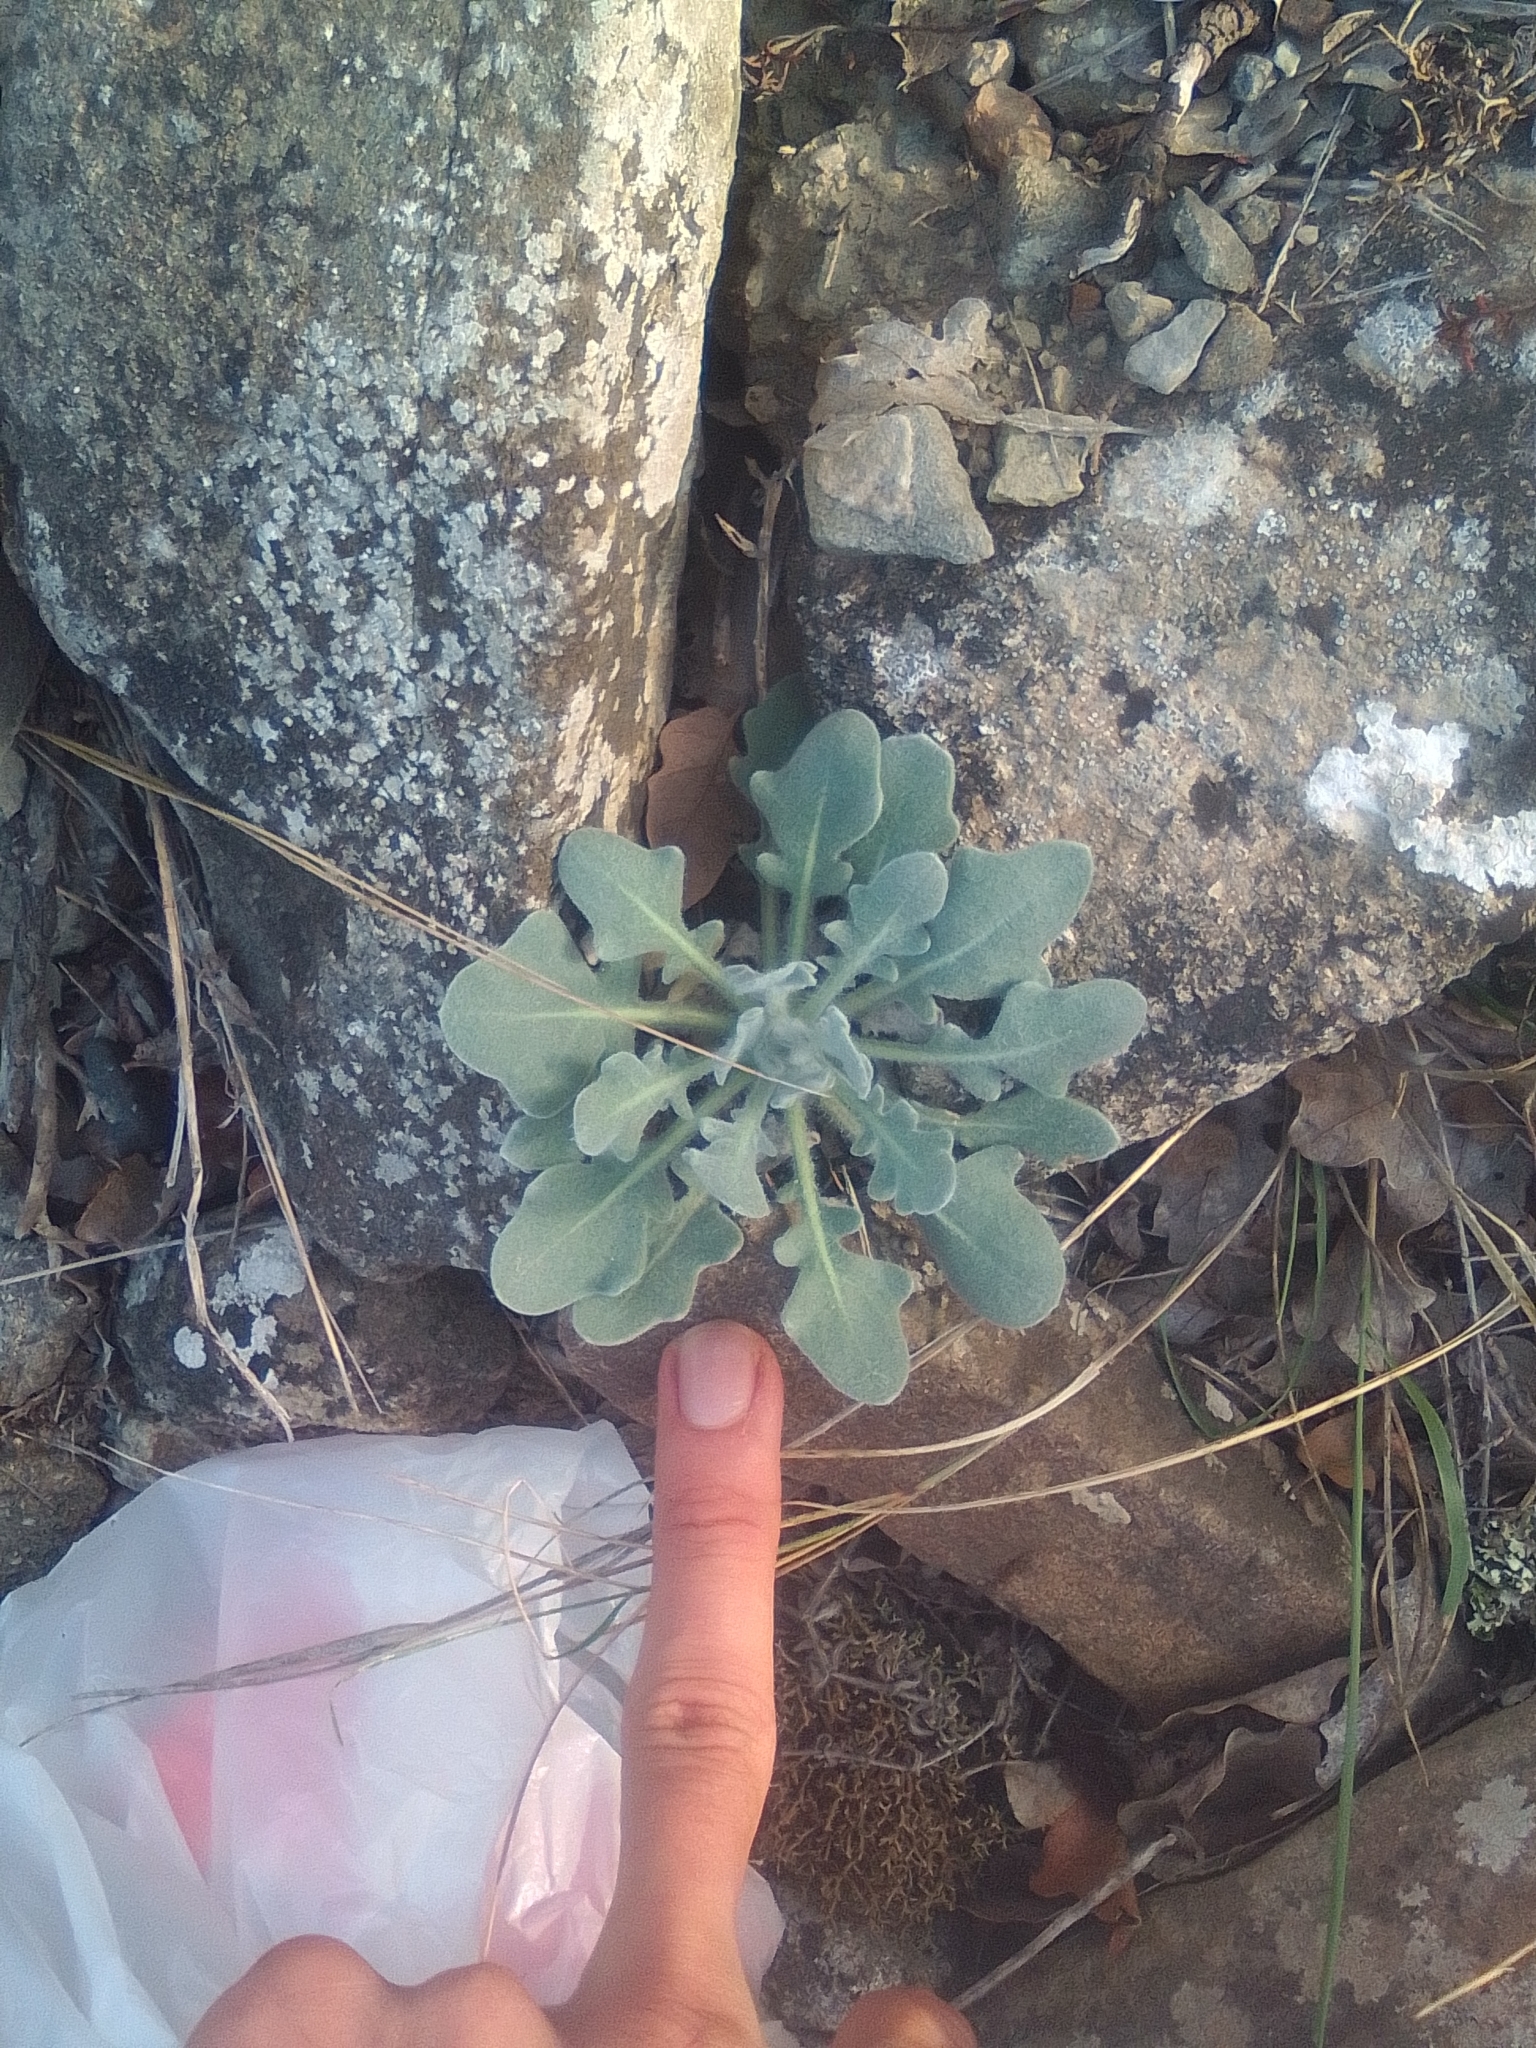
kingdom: Plantae
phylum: Tracheophyta
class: Magnoliopsida
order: Brassicales
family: Brassicaceae
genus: Arabis
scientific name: Arabis caucasica
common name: Gray rockcress
